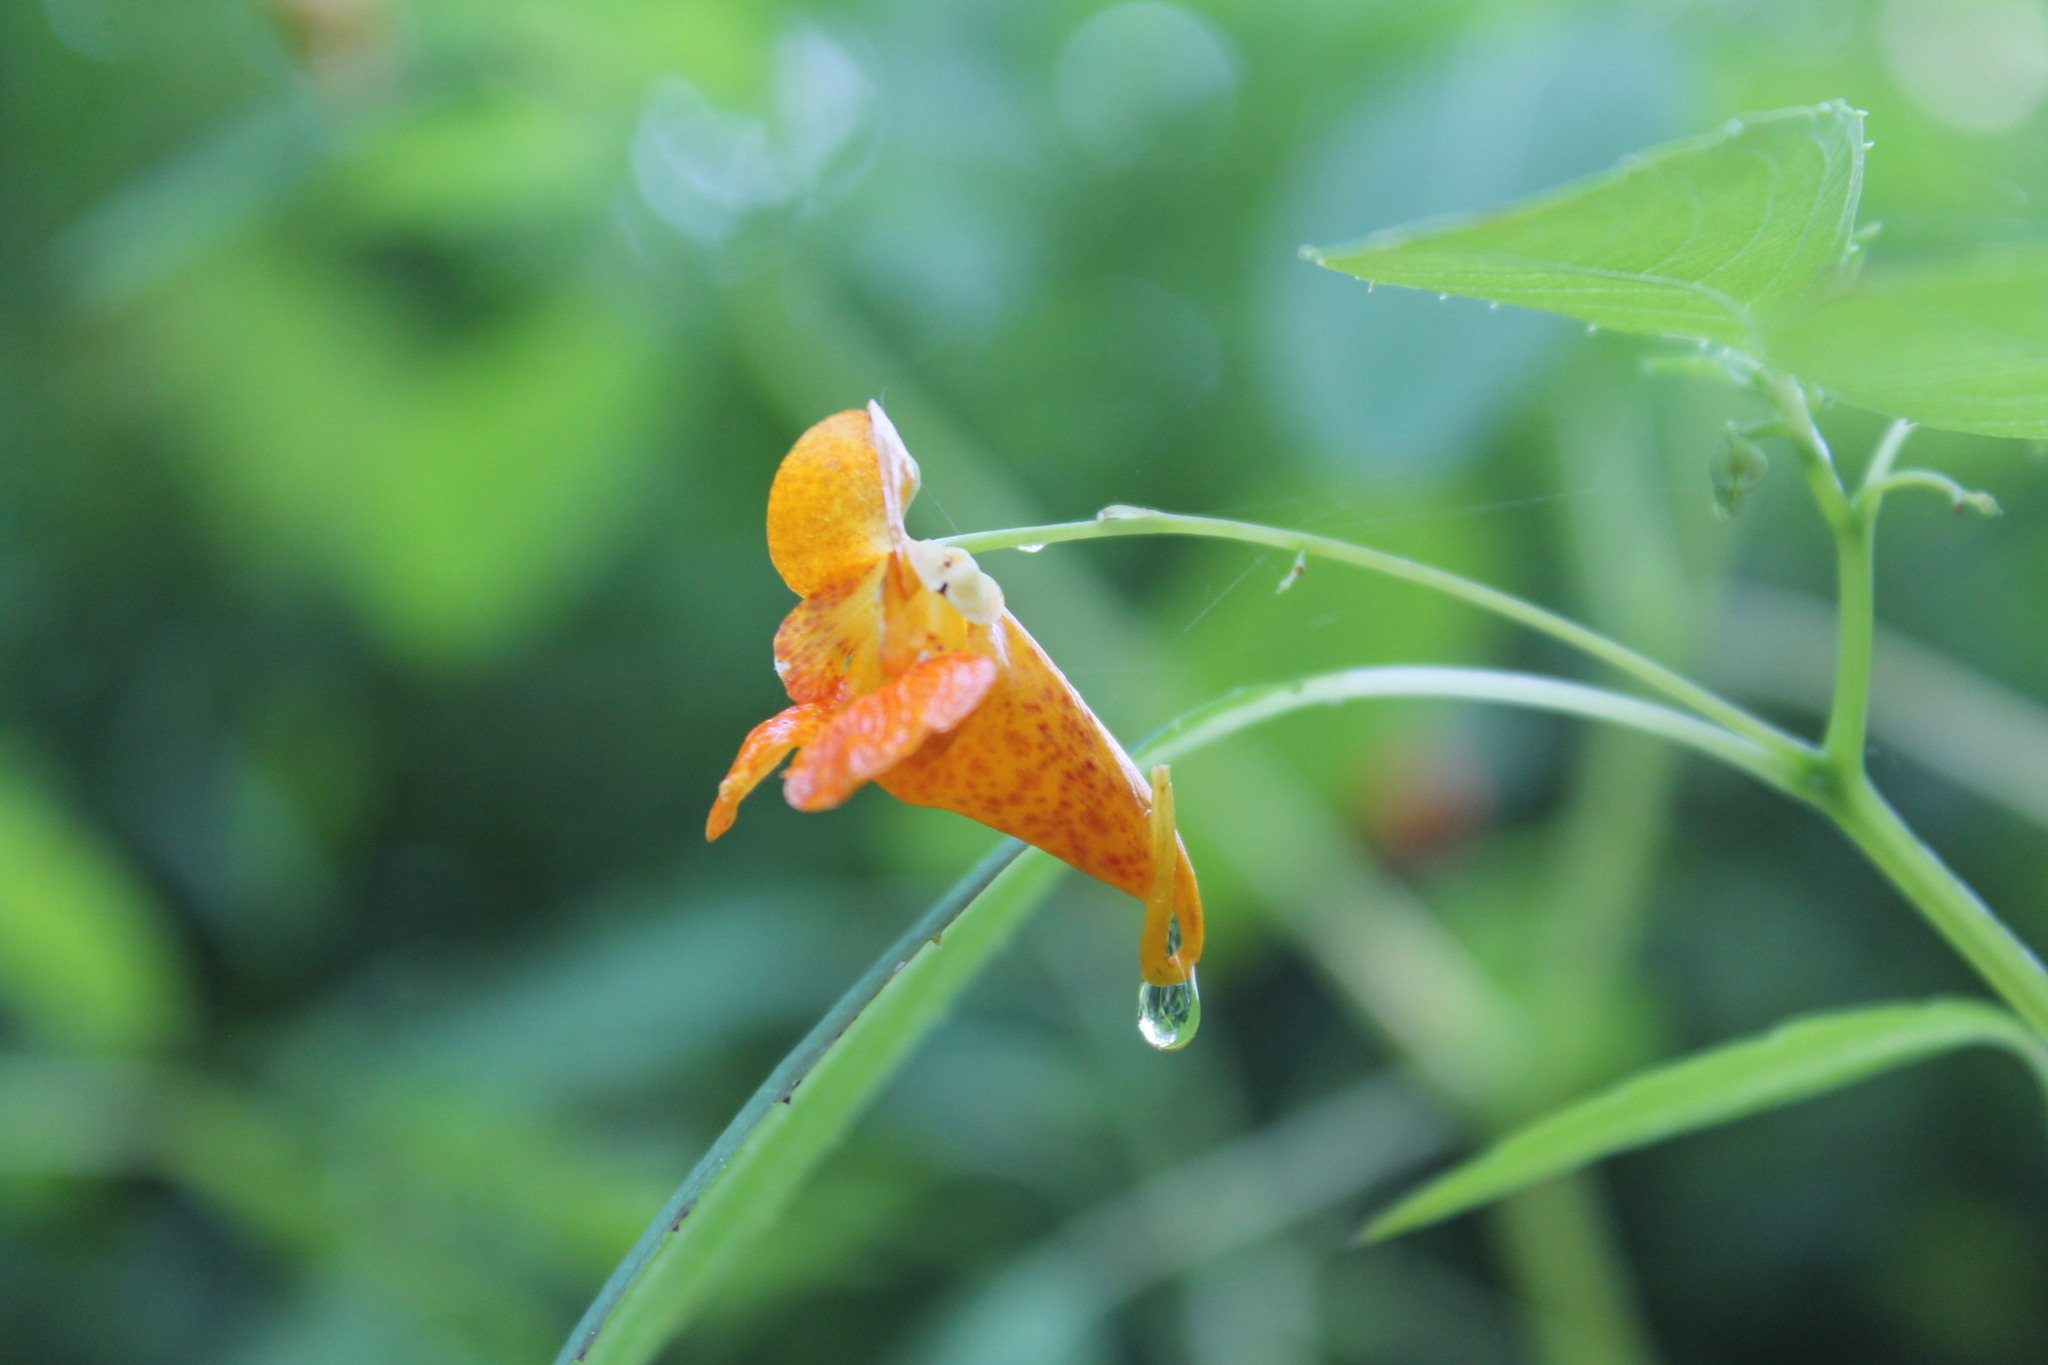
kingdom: Plantae
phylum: Tracheophyta
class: Magnoliopsida
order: Ericales
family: Balsaminaceae
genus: Impatiens
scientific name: Impatiens capensis
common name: Orange balsam
